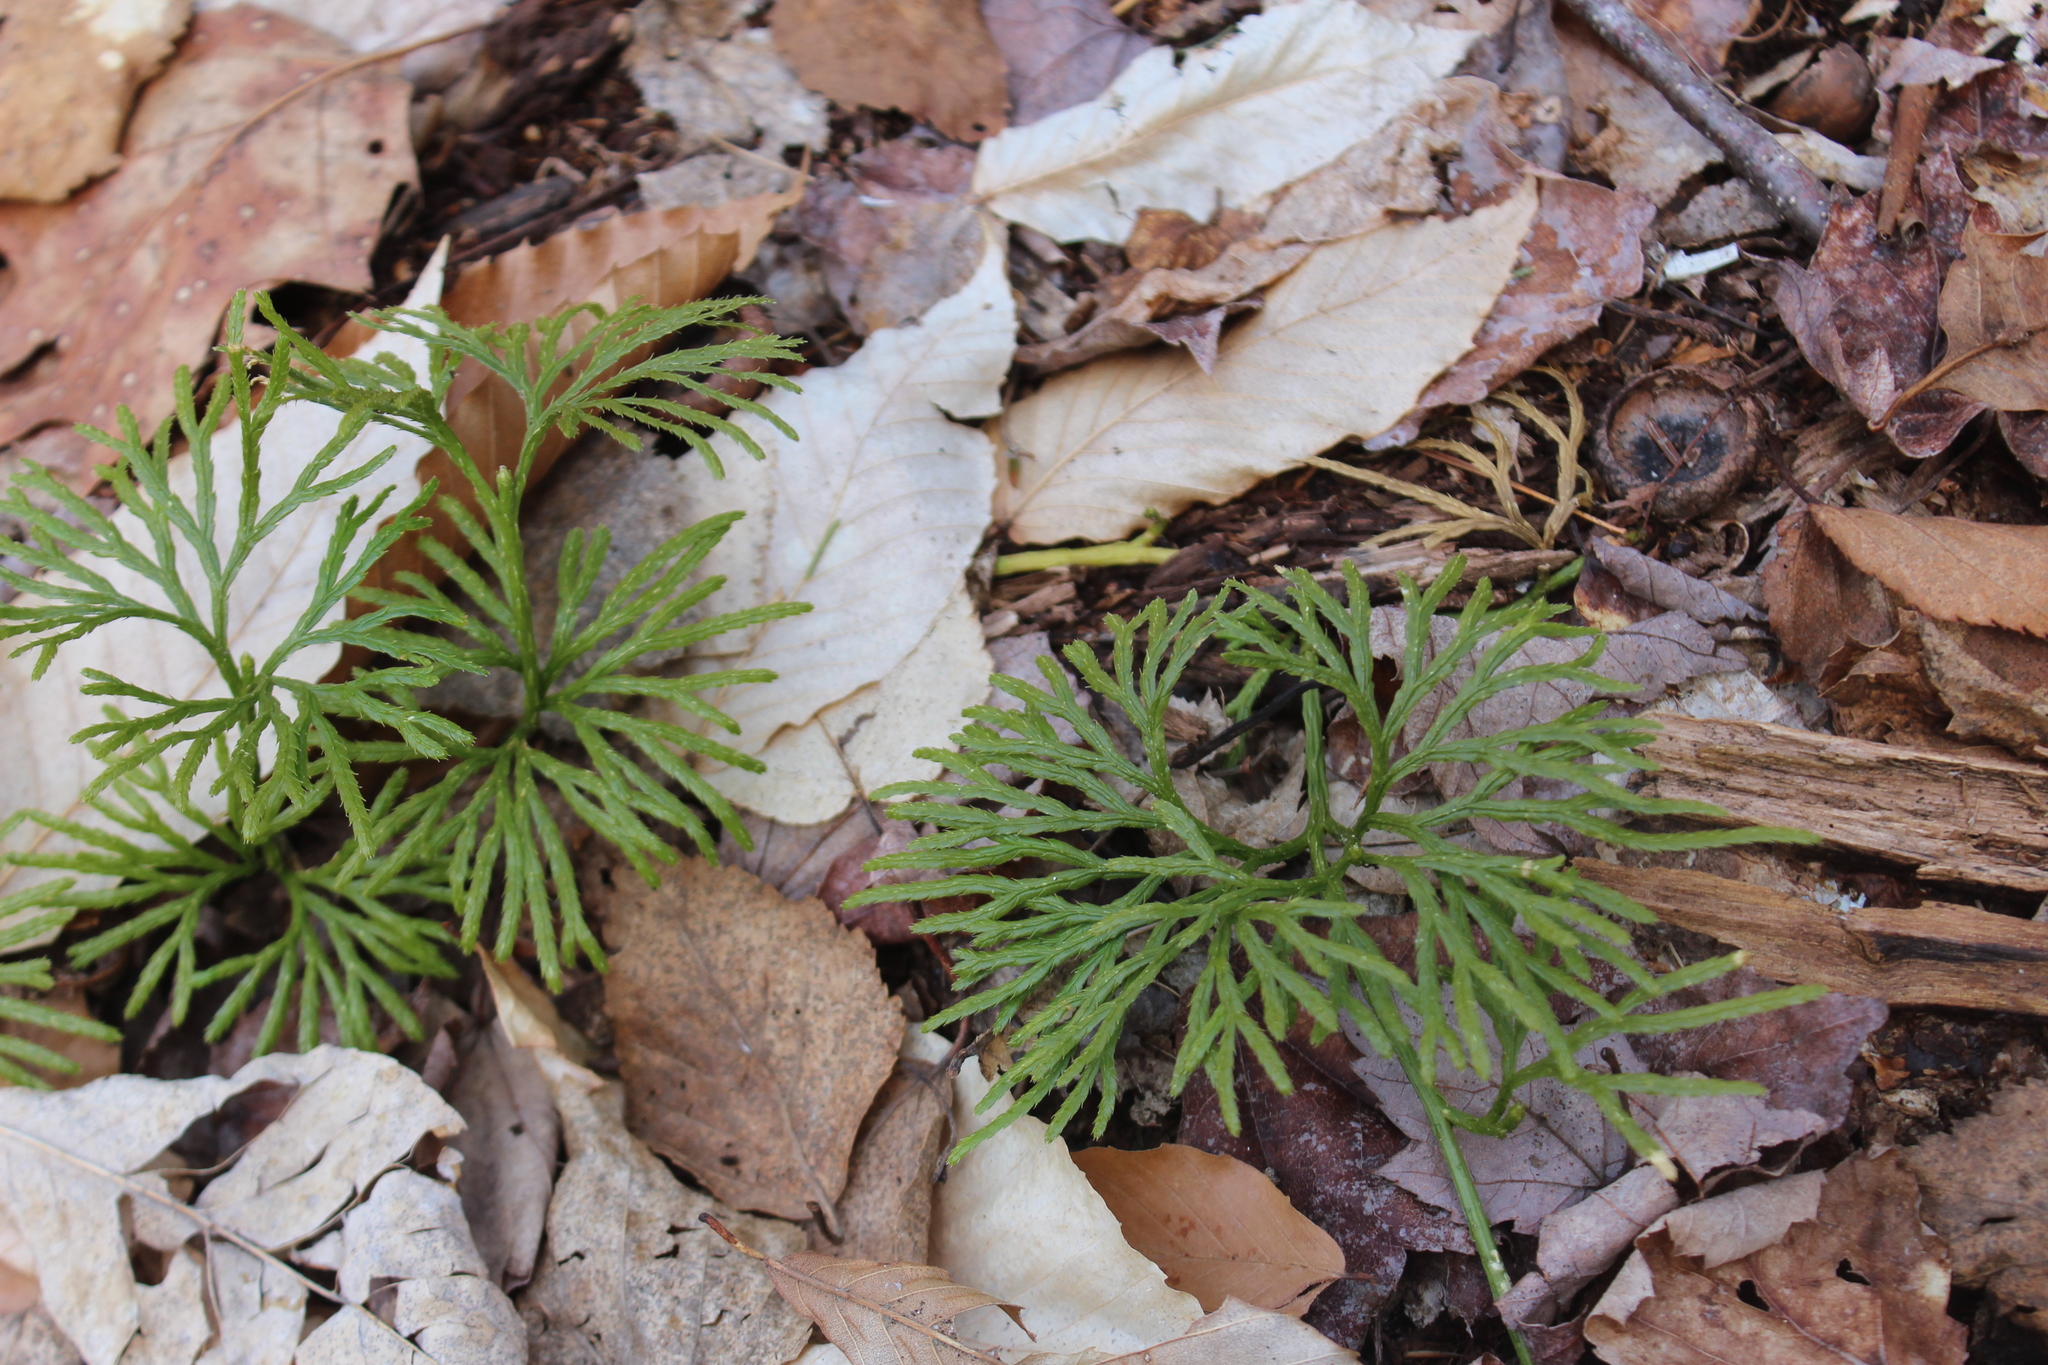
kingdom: Plantae
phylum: Tracheophyta
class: Lycopodiopsida
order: Lycopodiales
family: Lycopodiaceae
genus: Diphasiastrum
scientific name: Diphasiastrum digitatum
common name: Southern running-pine
